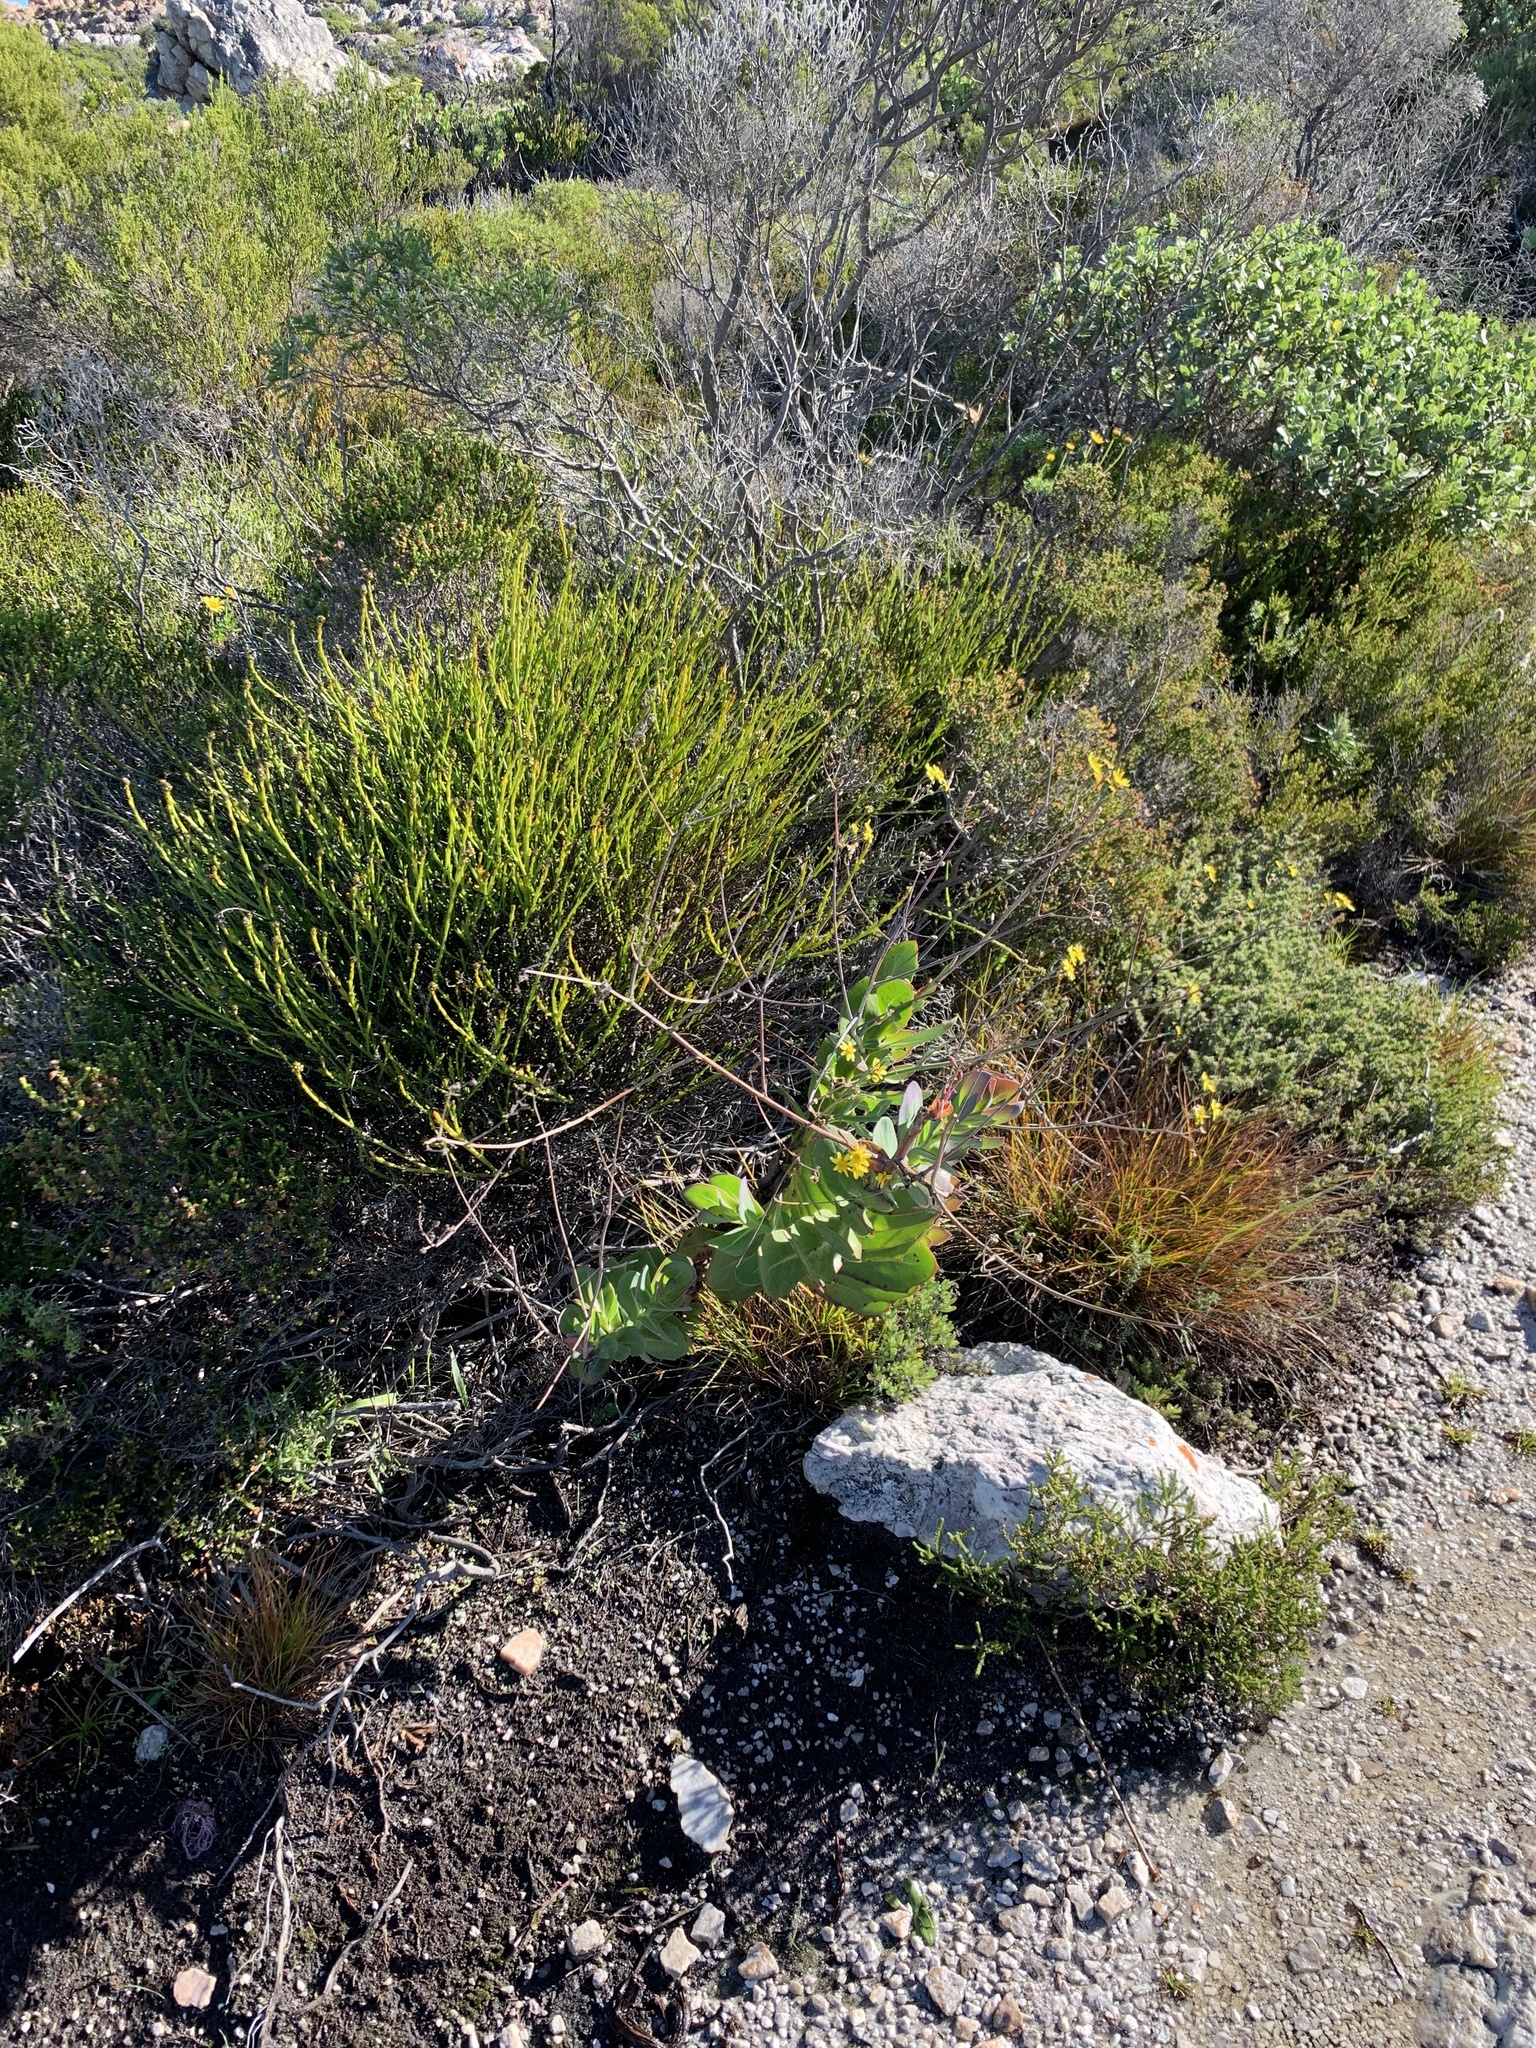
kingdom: Plantae
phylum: Tracheophyta
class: Magnoliopsida
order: Asterales
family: Asteraceae
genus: Othonna
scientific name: Othonna quinquedentata
